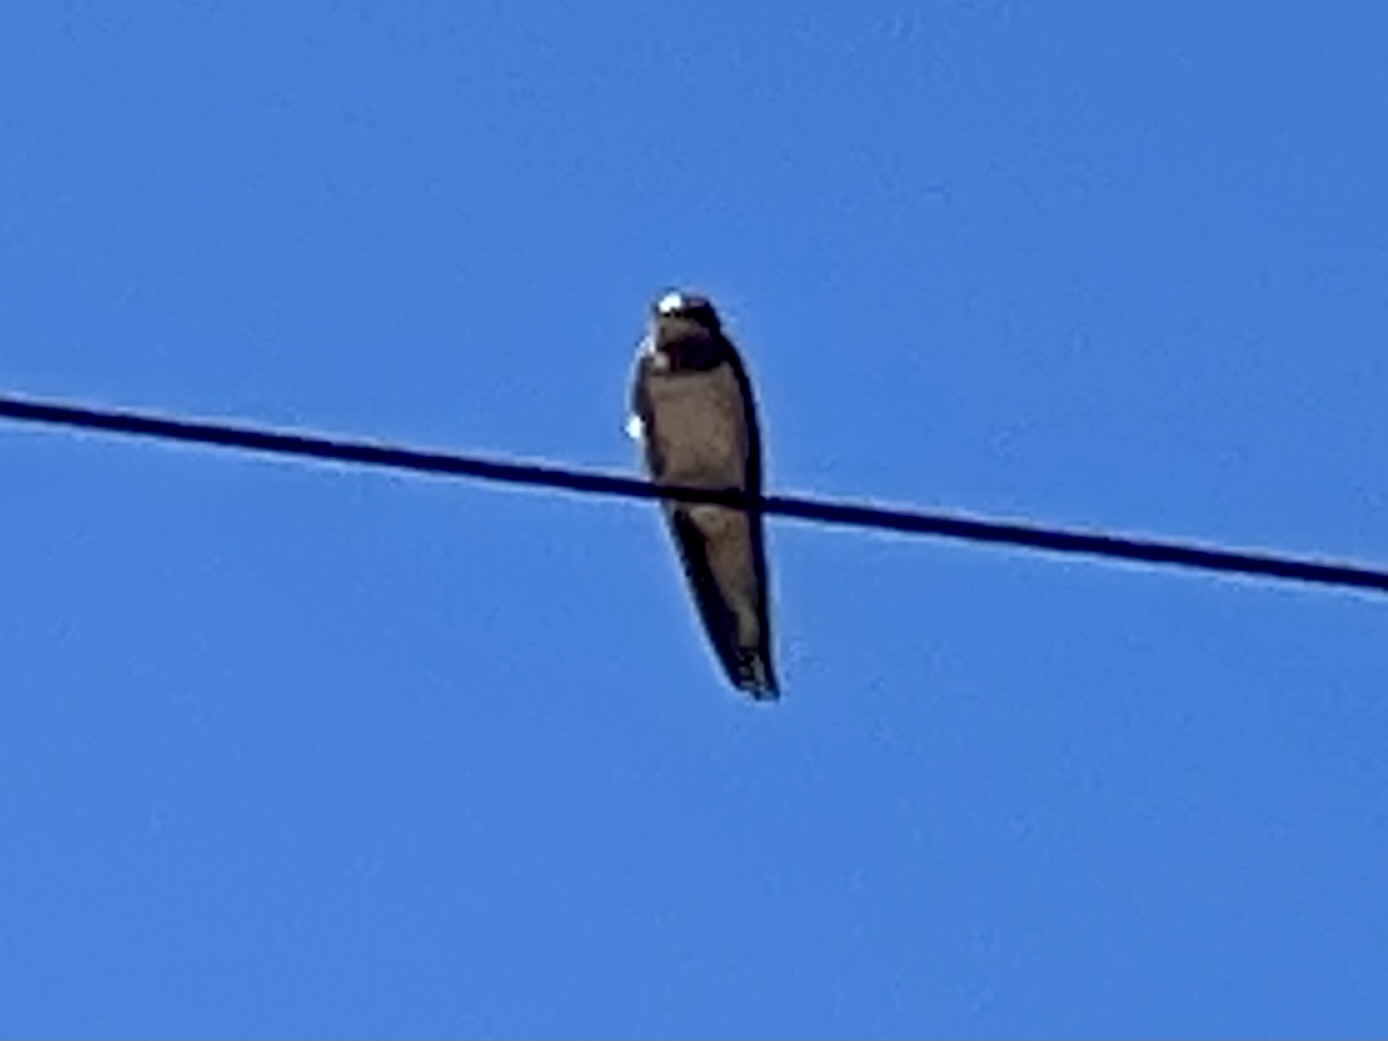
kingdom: Animalia
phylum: Chordata
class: Aves
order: Passeriformes
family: Hirundinidae
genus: Hirundo
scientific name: Hirundo rustica
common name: Barn swallow
